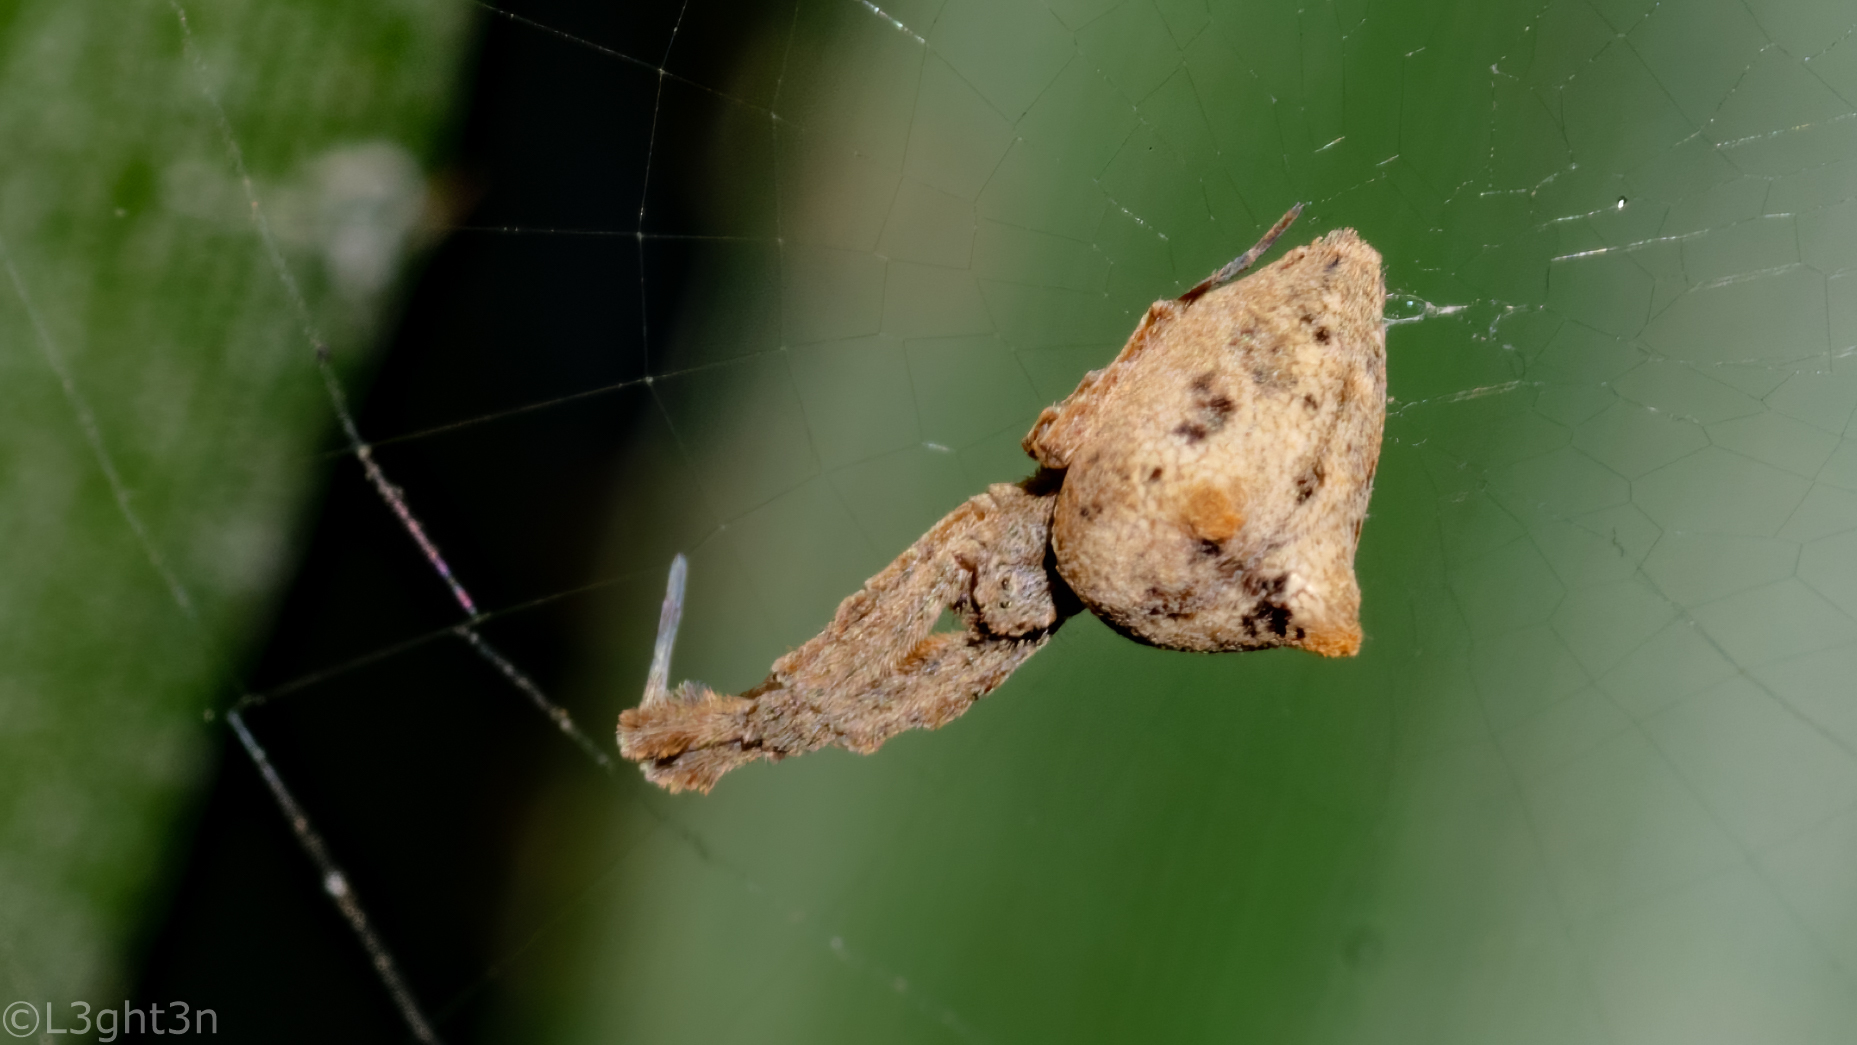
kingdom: Animalia
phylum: Arthropoda
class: Arachnida
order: Araneae
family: Uloboridae
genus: Uloborus
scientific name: Uloborus plumipes
